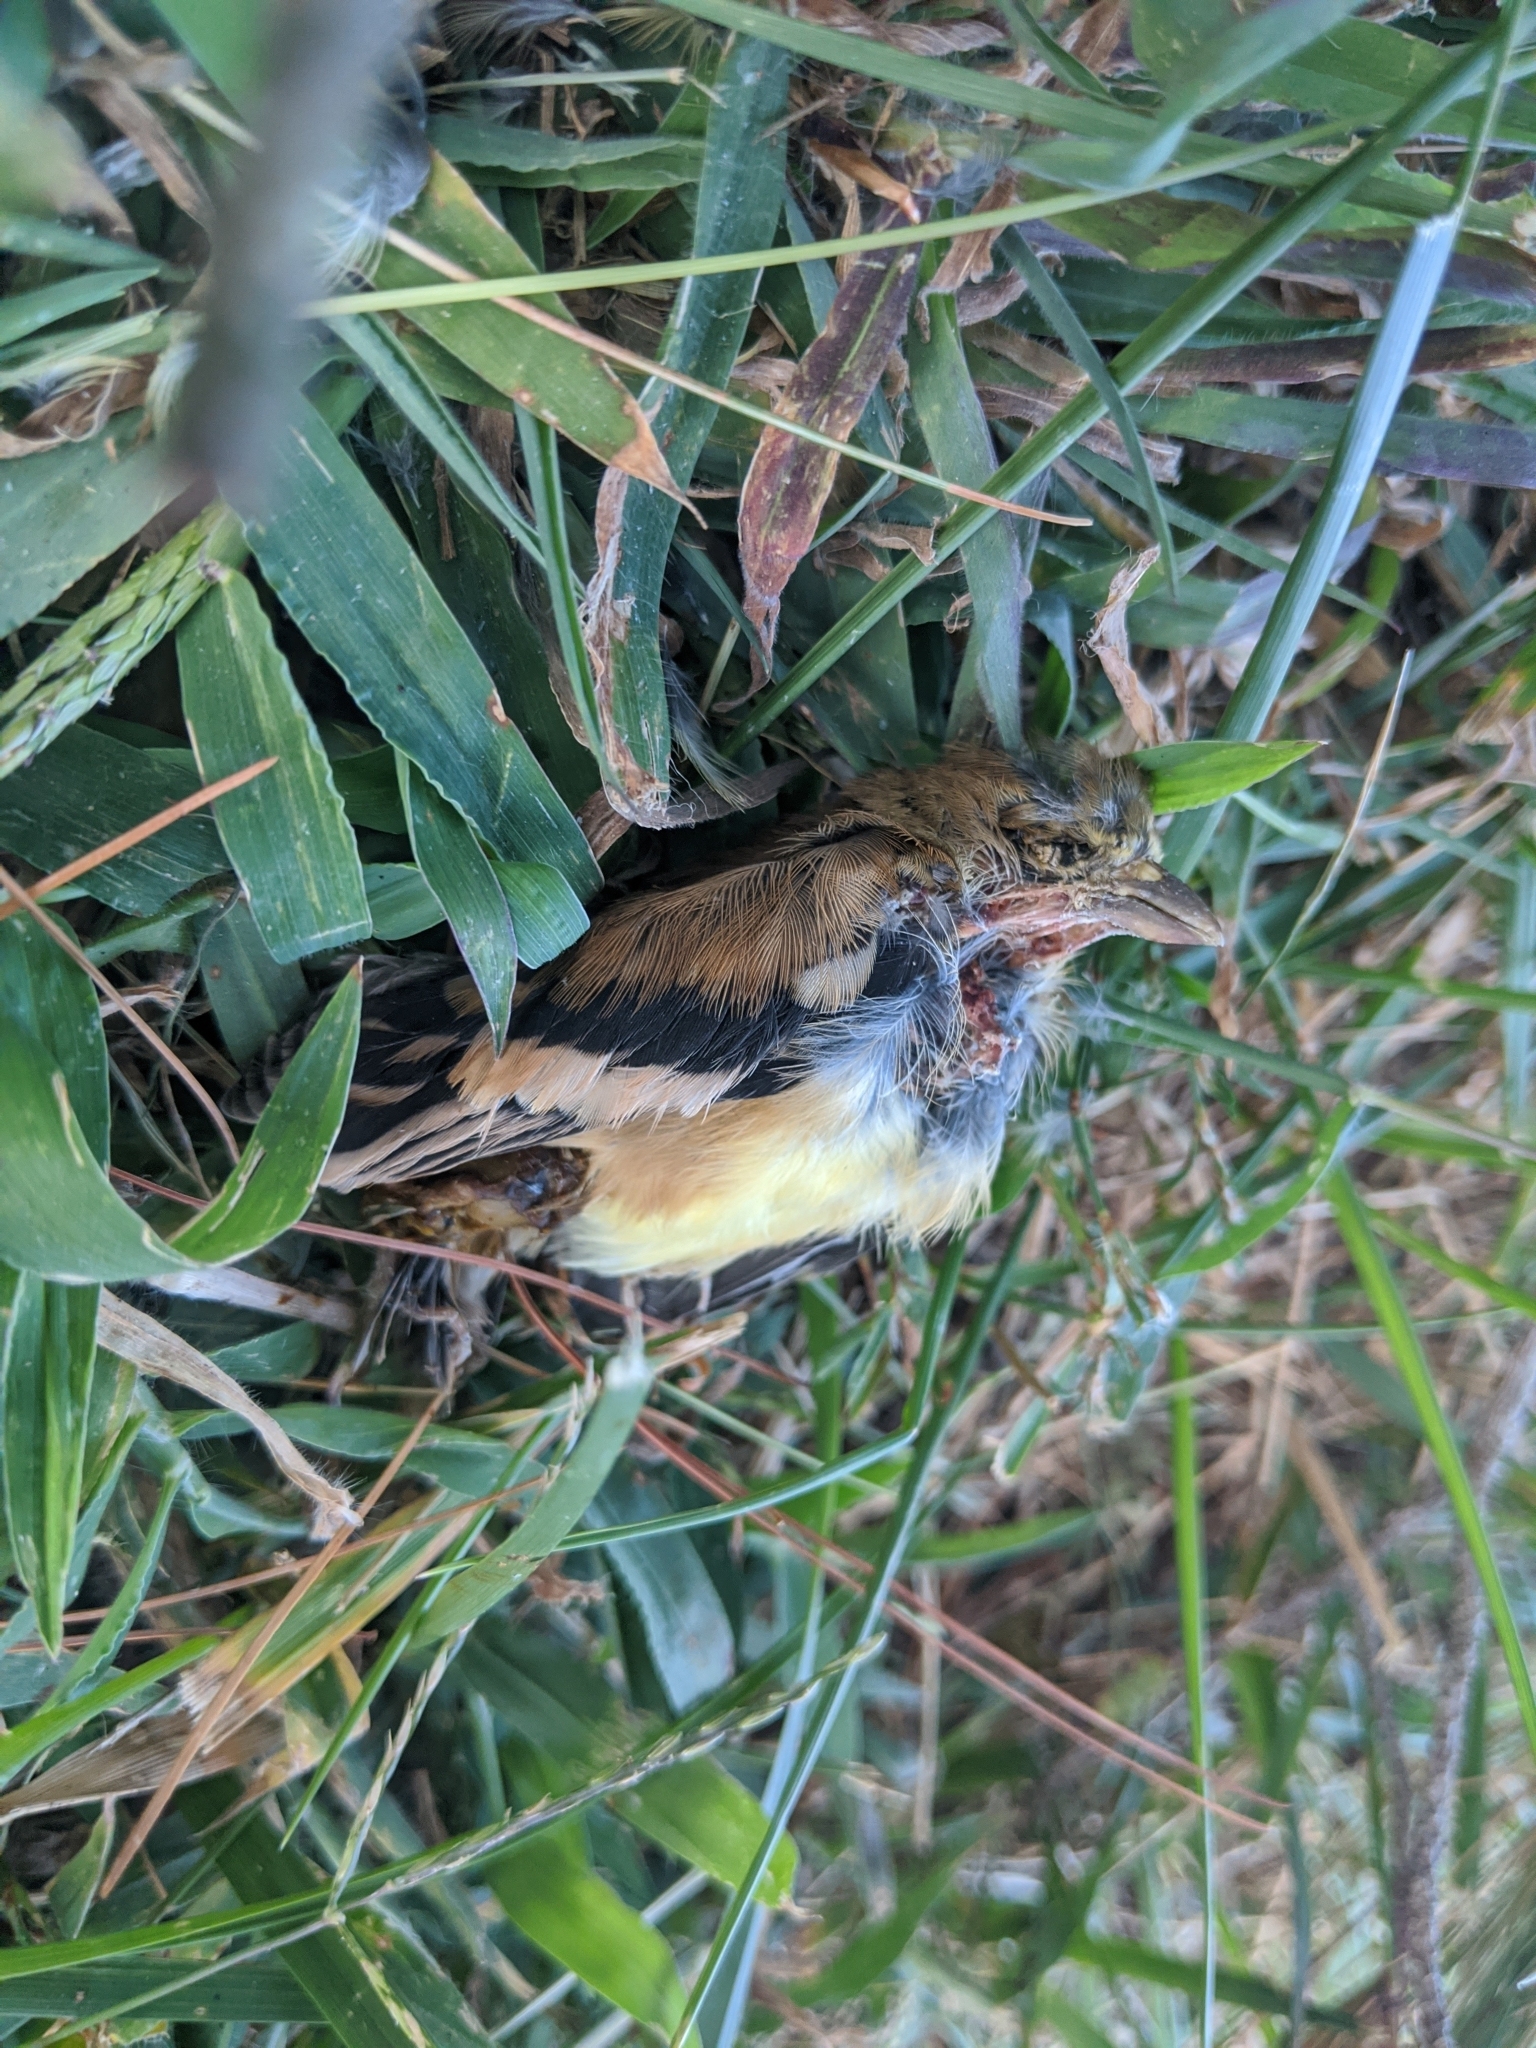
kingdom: Animalia
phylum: Chordata
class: Aves
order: Passeriformes
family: Fringillidae
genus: Spinus
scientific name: Spinus tristis
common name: American goldfinch
